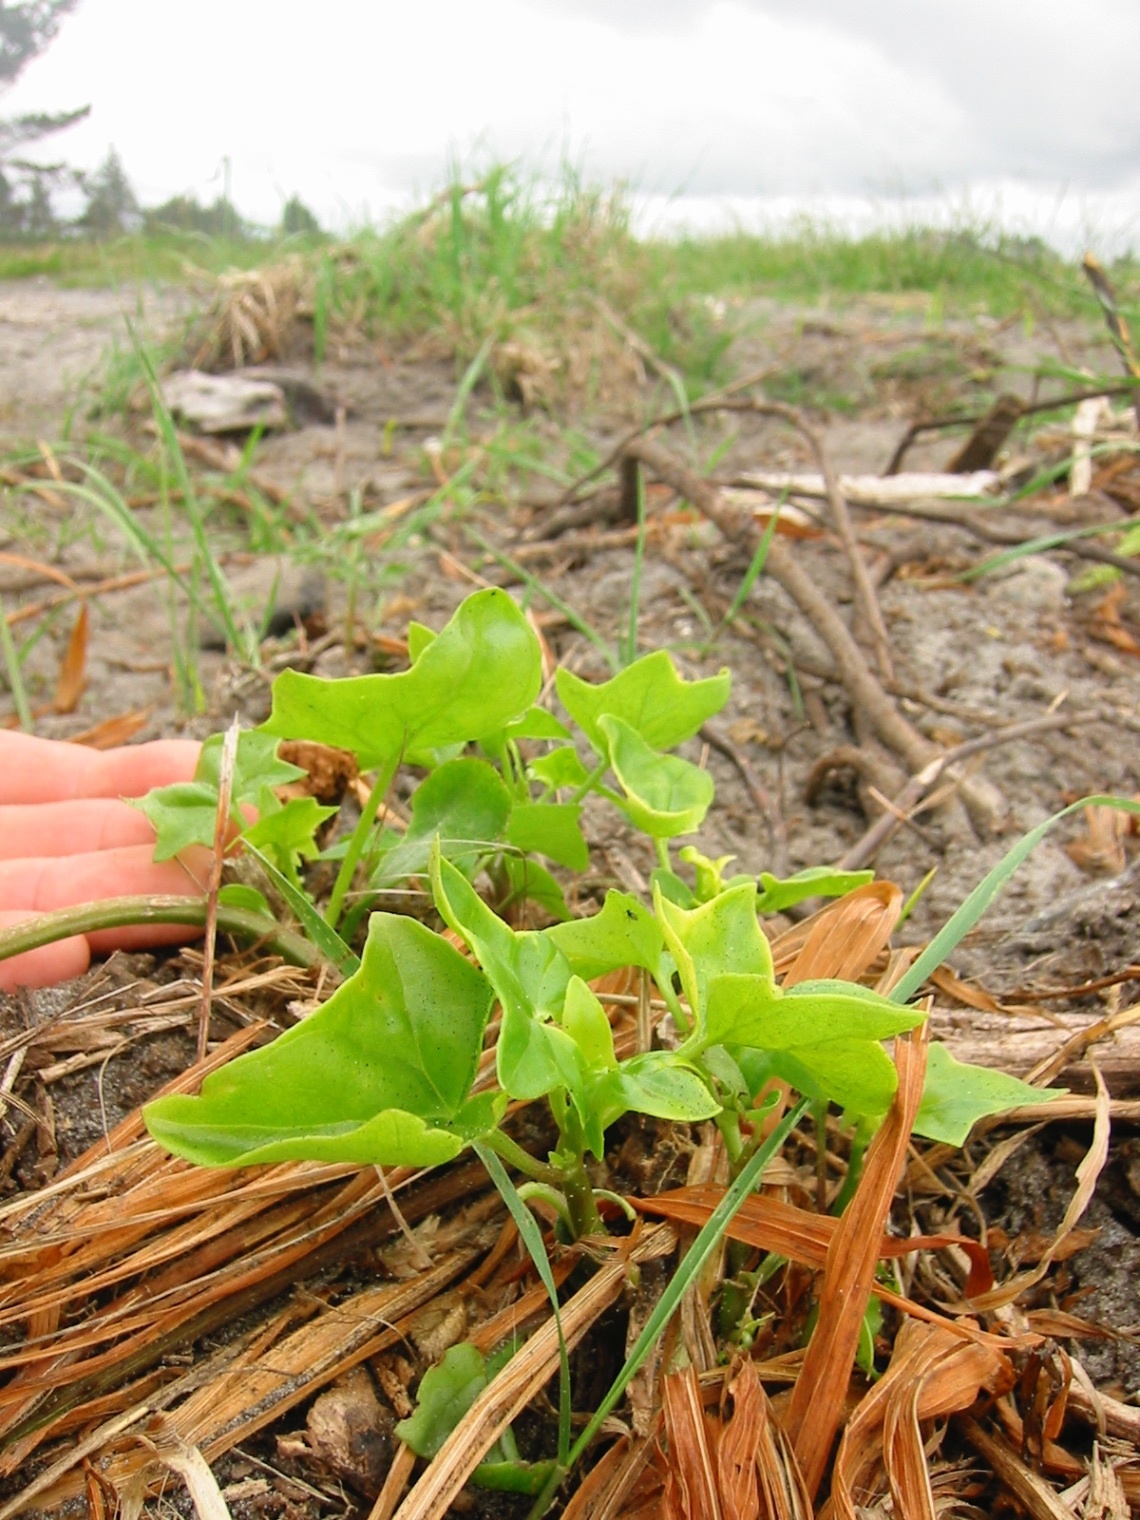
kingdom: Plantae
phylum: Tracheophyta
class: Magnoliopsida
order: Asterales
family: Asteraceae
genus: Senecio
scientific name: Senecio angulatus
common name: Climbing groundsel
